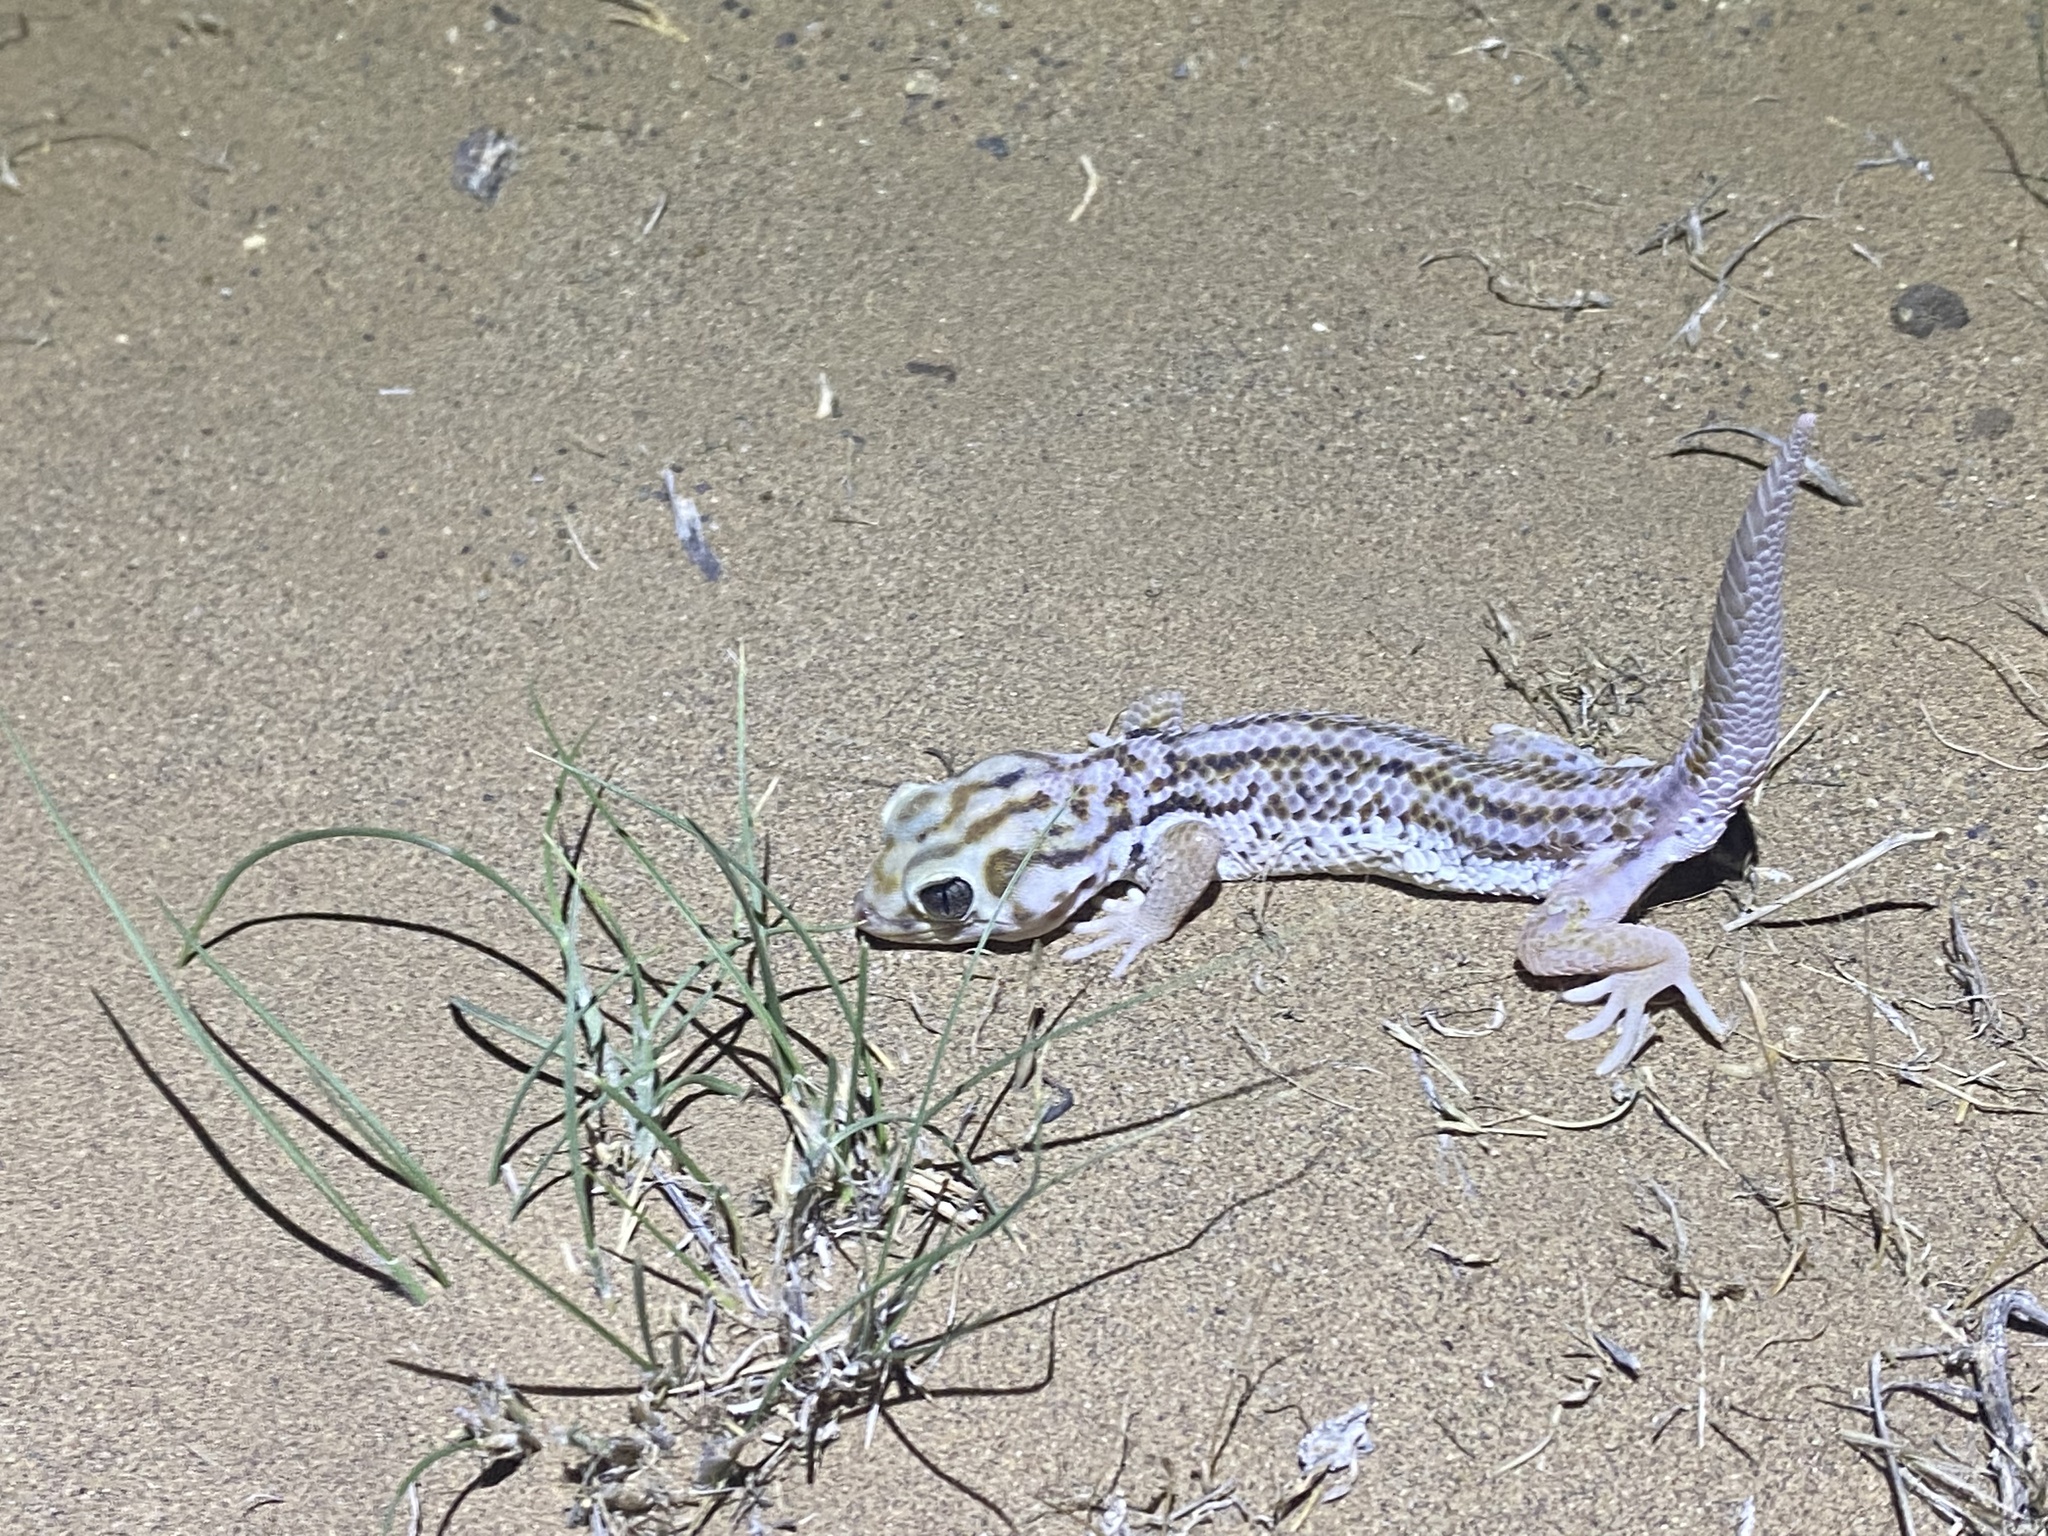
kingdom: Animalia
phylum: Chordata
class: Squamata
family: Sphaerodactylidae
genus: Teratoscincus
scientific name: Teratoscincus keyserlingii
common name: Frog-eyed gecko
